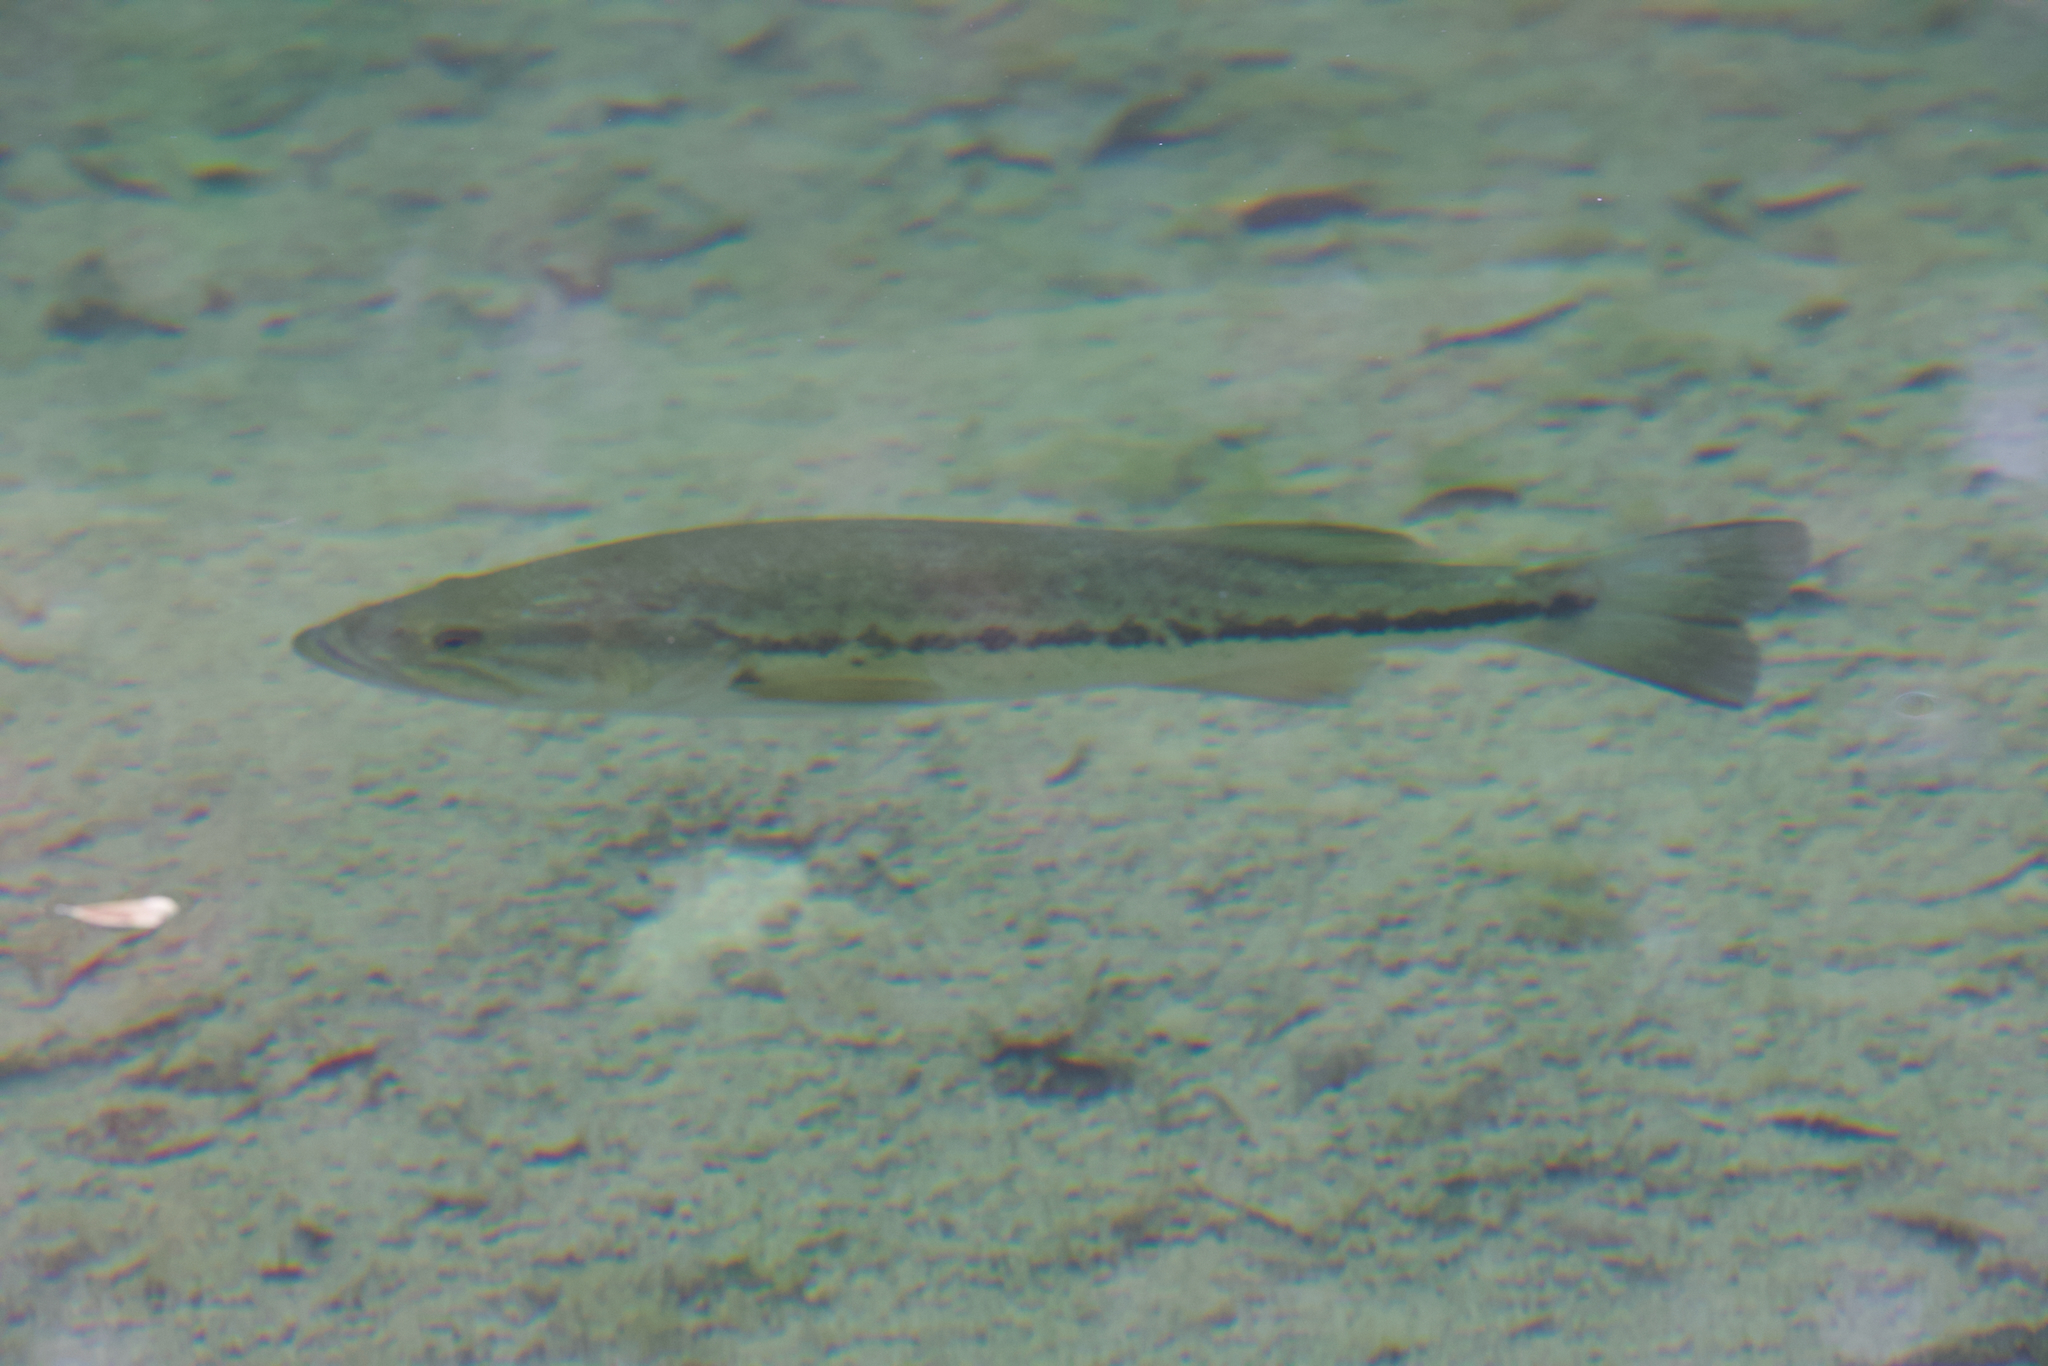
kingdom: Animalia
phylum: Chordata
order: Perciformes
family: Centrarchidae
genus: Micropterus
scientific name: Micropterus
